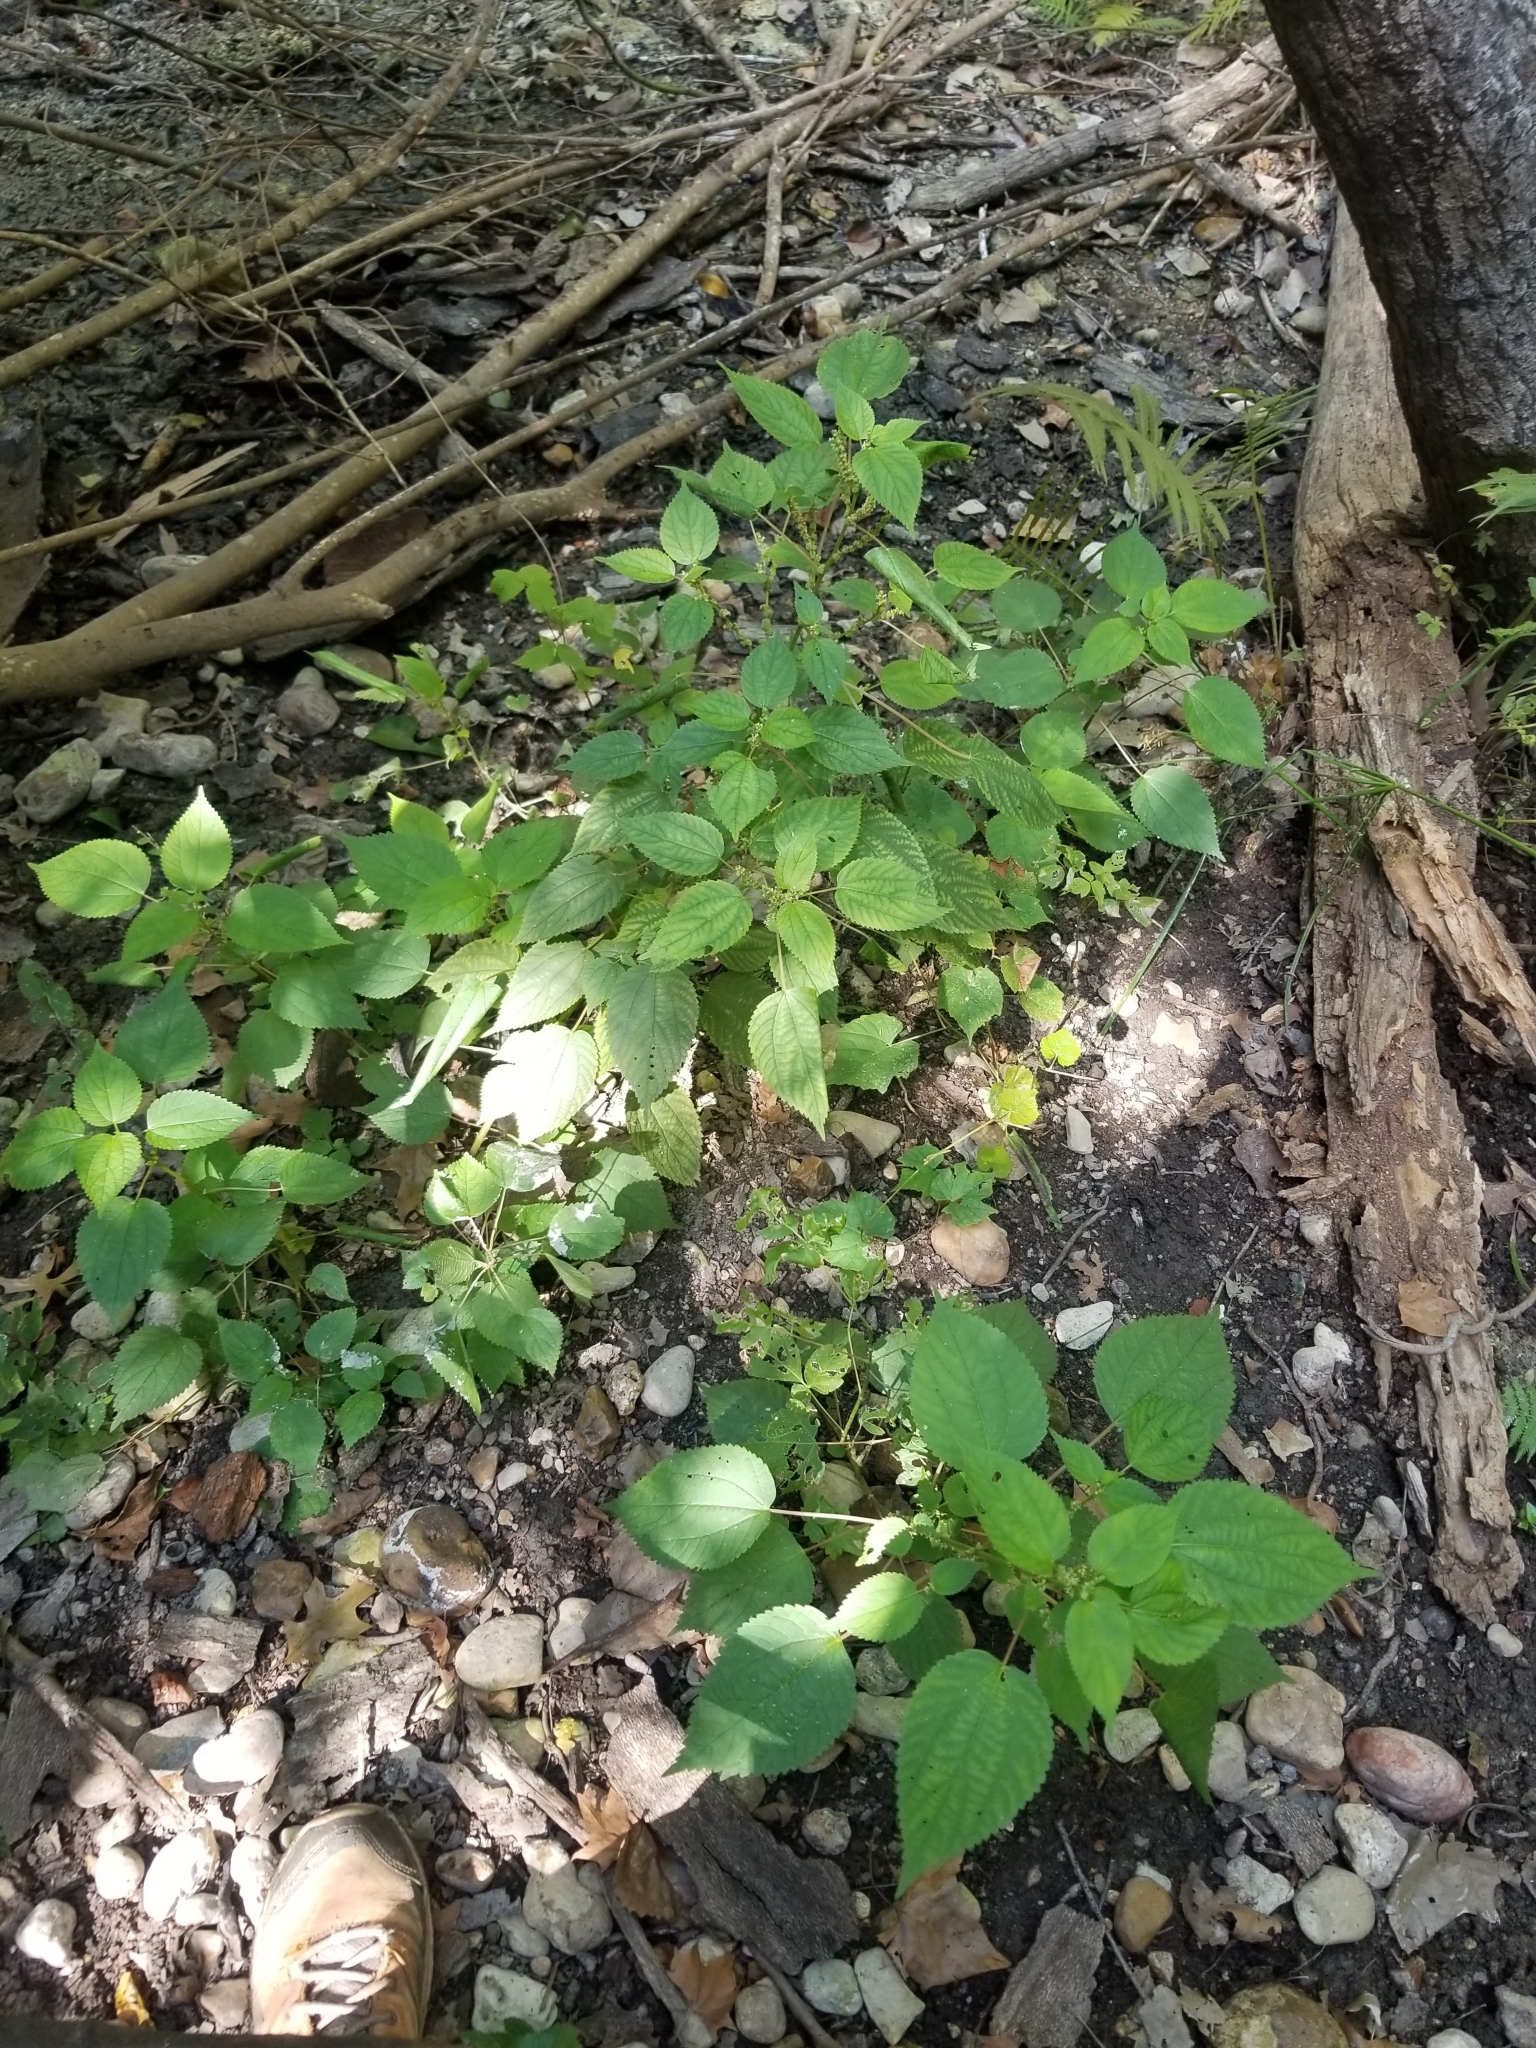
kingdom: Plantae
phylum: Tracheophyta
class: Magnoliopsida
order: Rosales
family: Urticaceae
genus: Boehmeria
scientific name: Boehmeria cylindrica
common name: Bog-hemp
